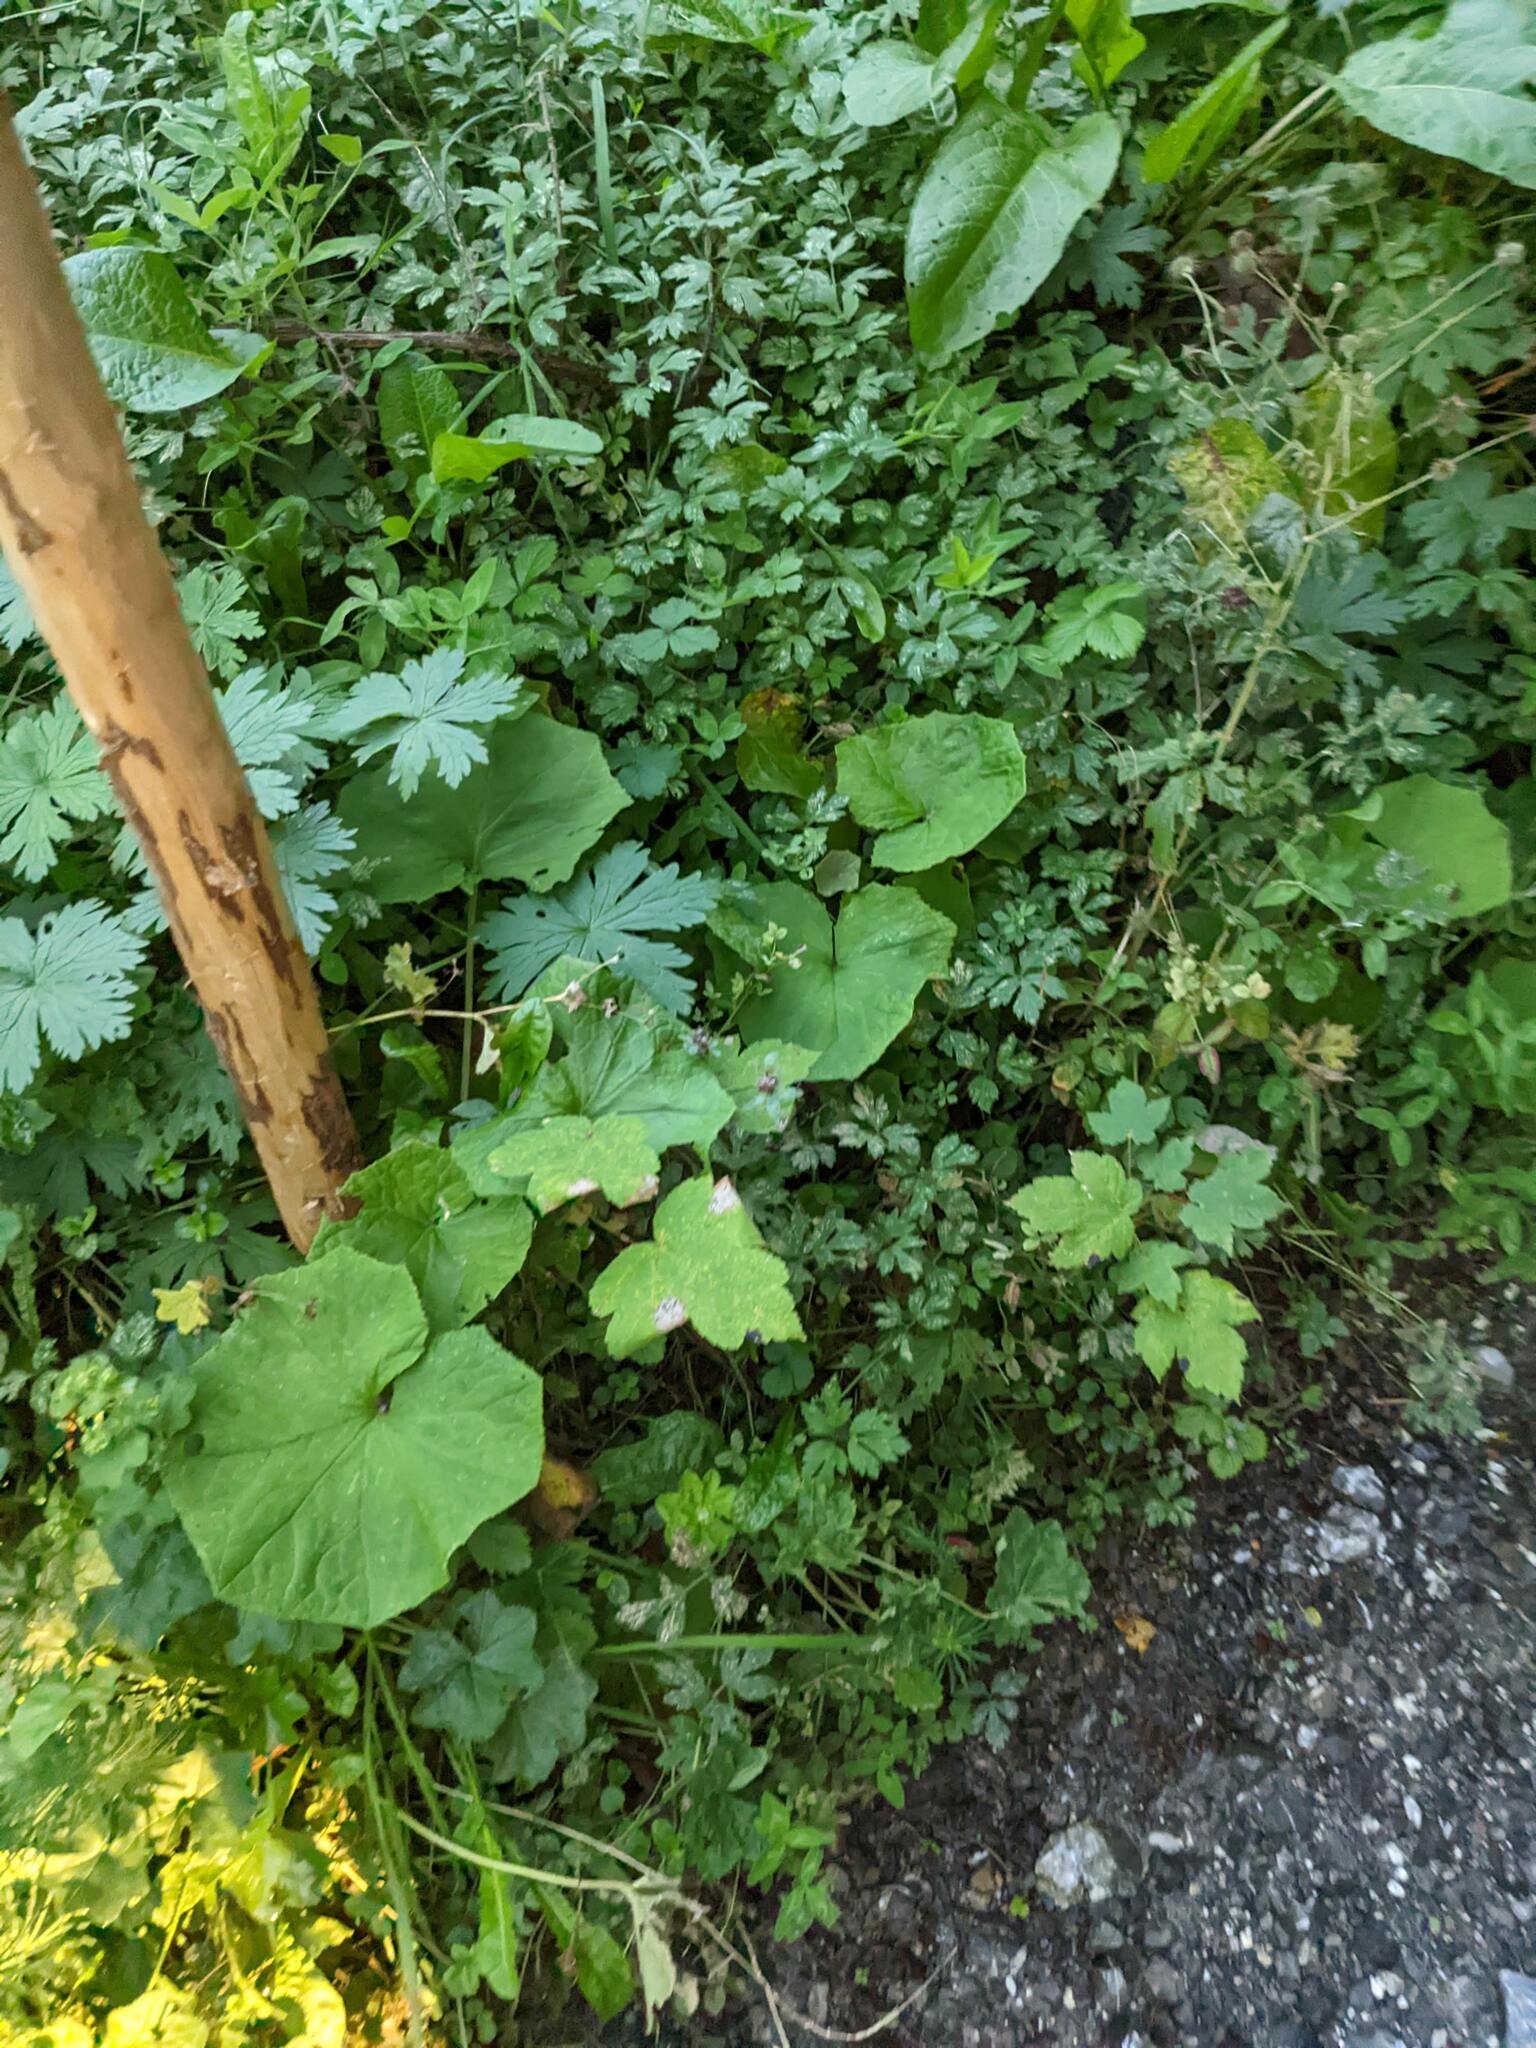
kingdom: Plantae
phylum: Tracheophyta
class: Magnoliopsida
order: Asterales
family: Asteraceae
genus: Tussilago
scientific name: Tussilago farfara
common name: Coltsfoot
